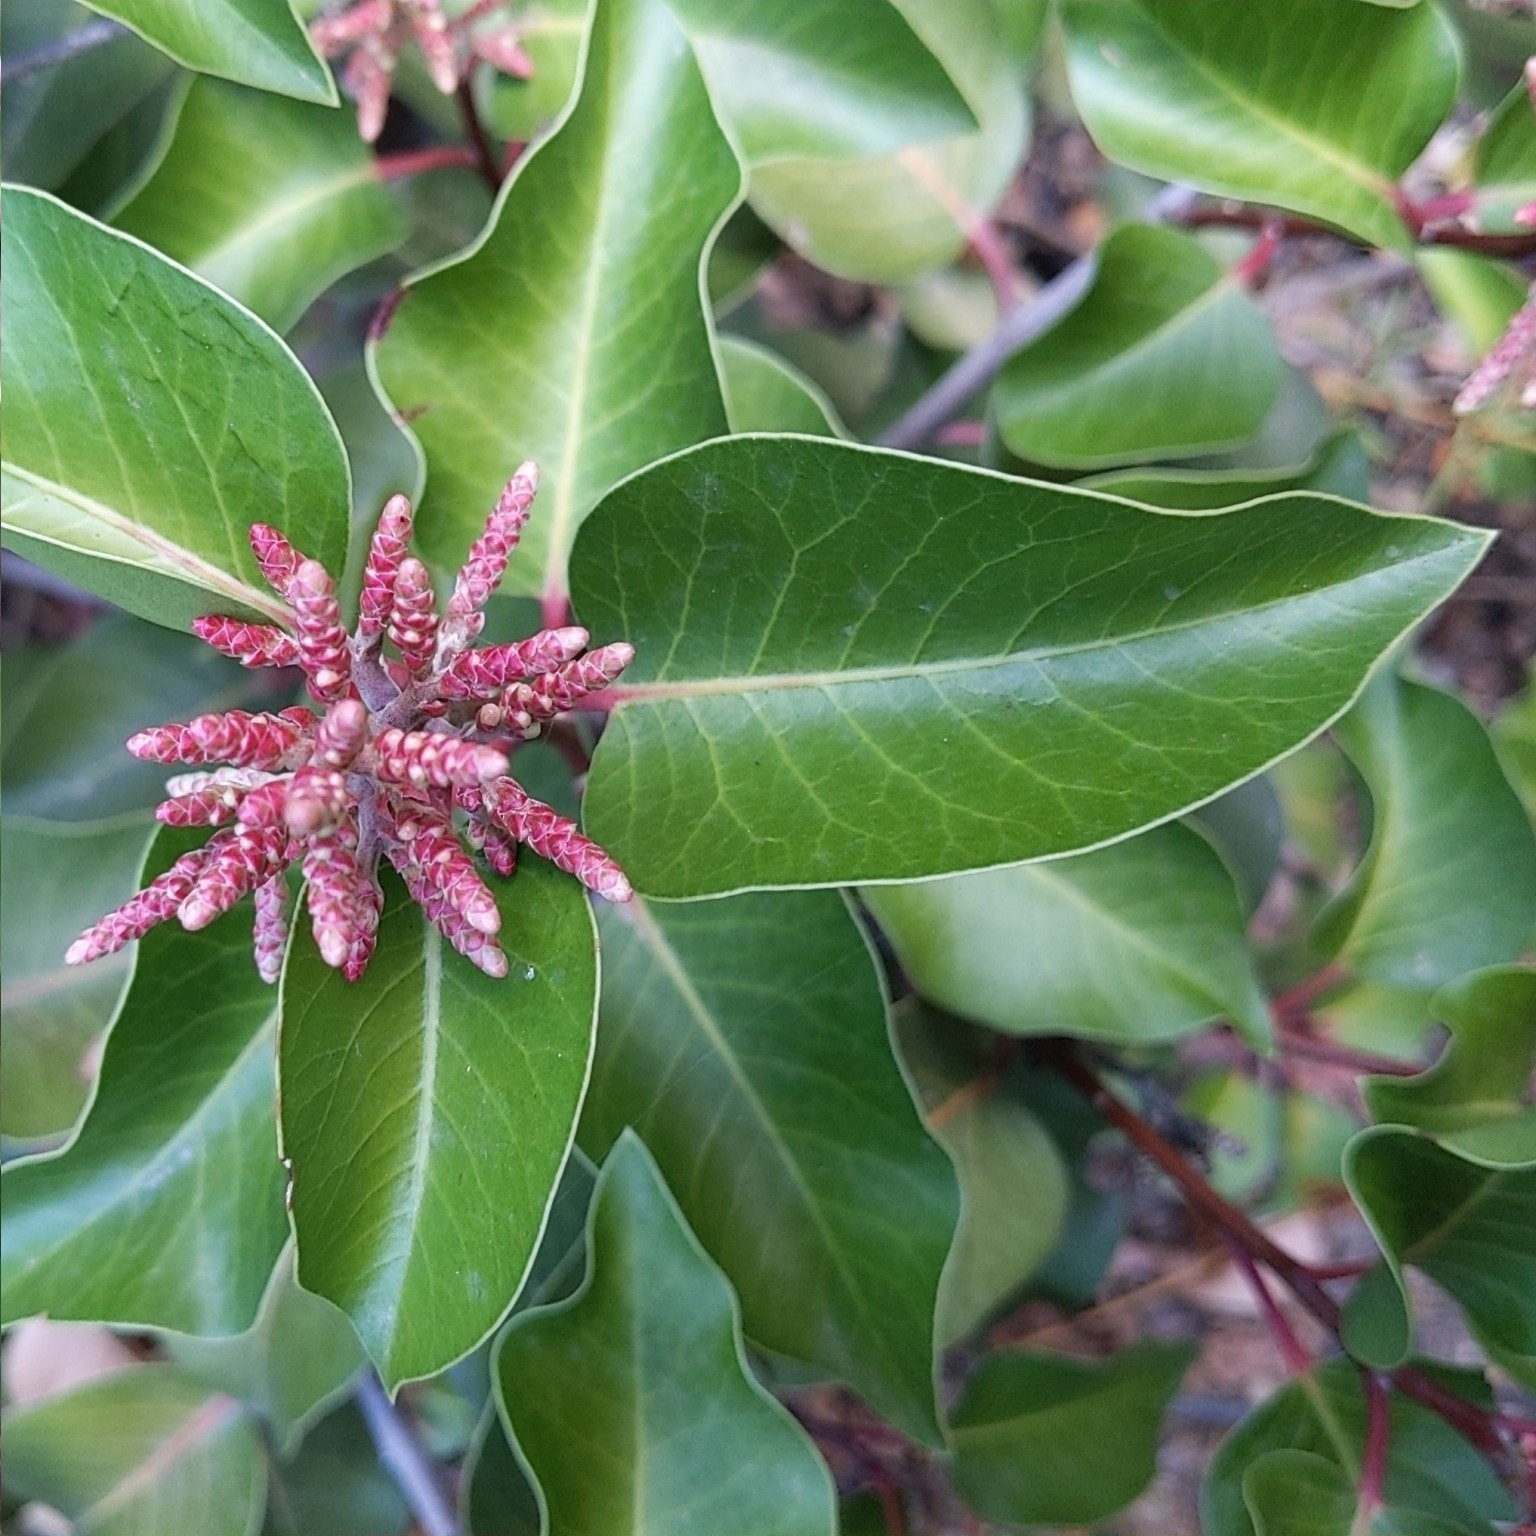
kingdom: Plantae
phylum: Tracheophyta
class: Magnoliopsida
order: Sapindales
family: Anacardiaceae
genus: Rhus
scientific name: Rhus ovata
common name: Sugar sumac
